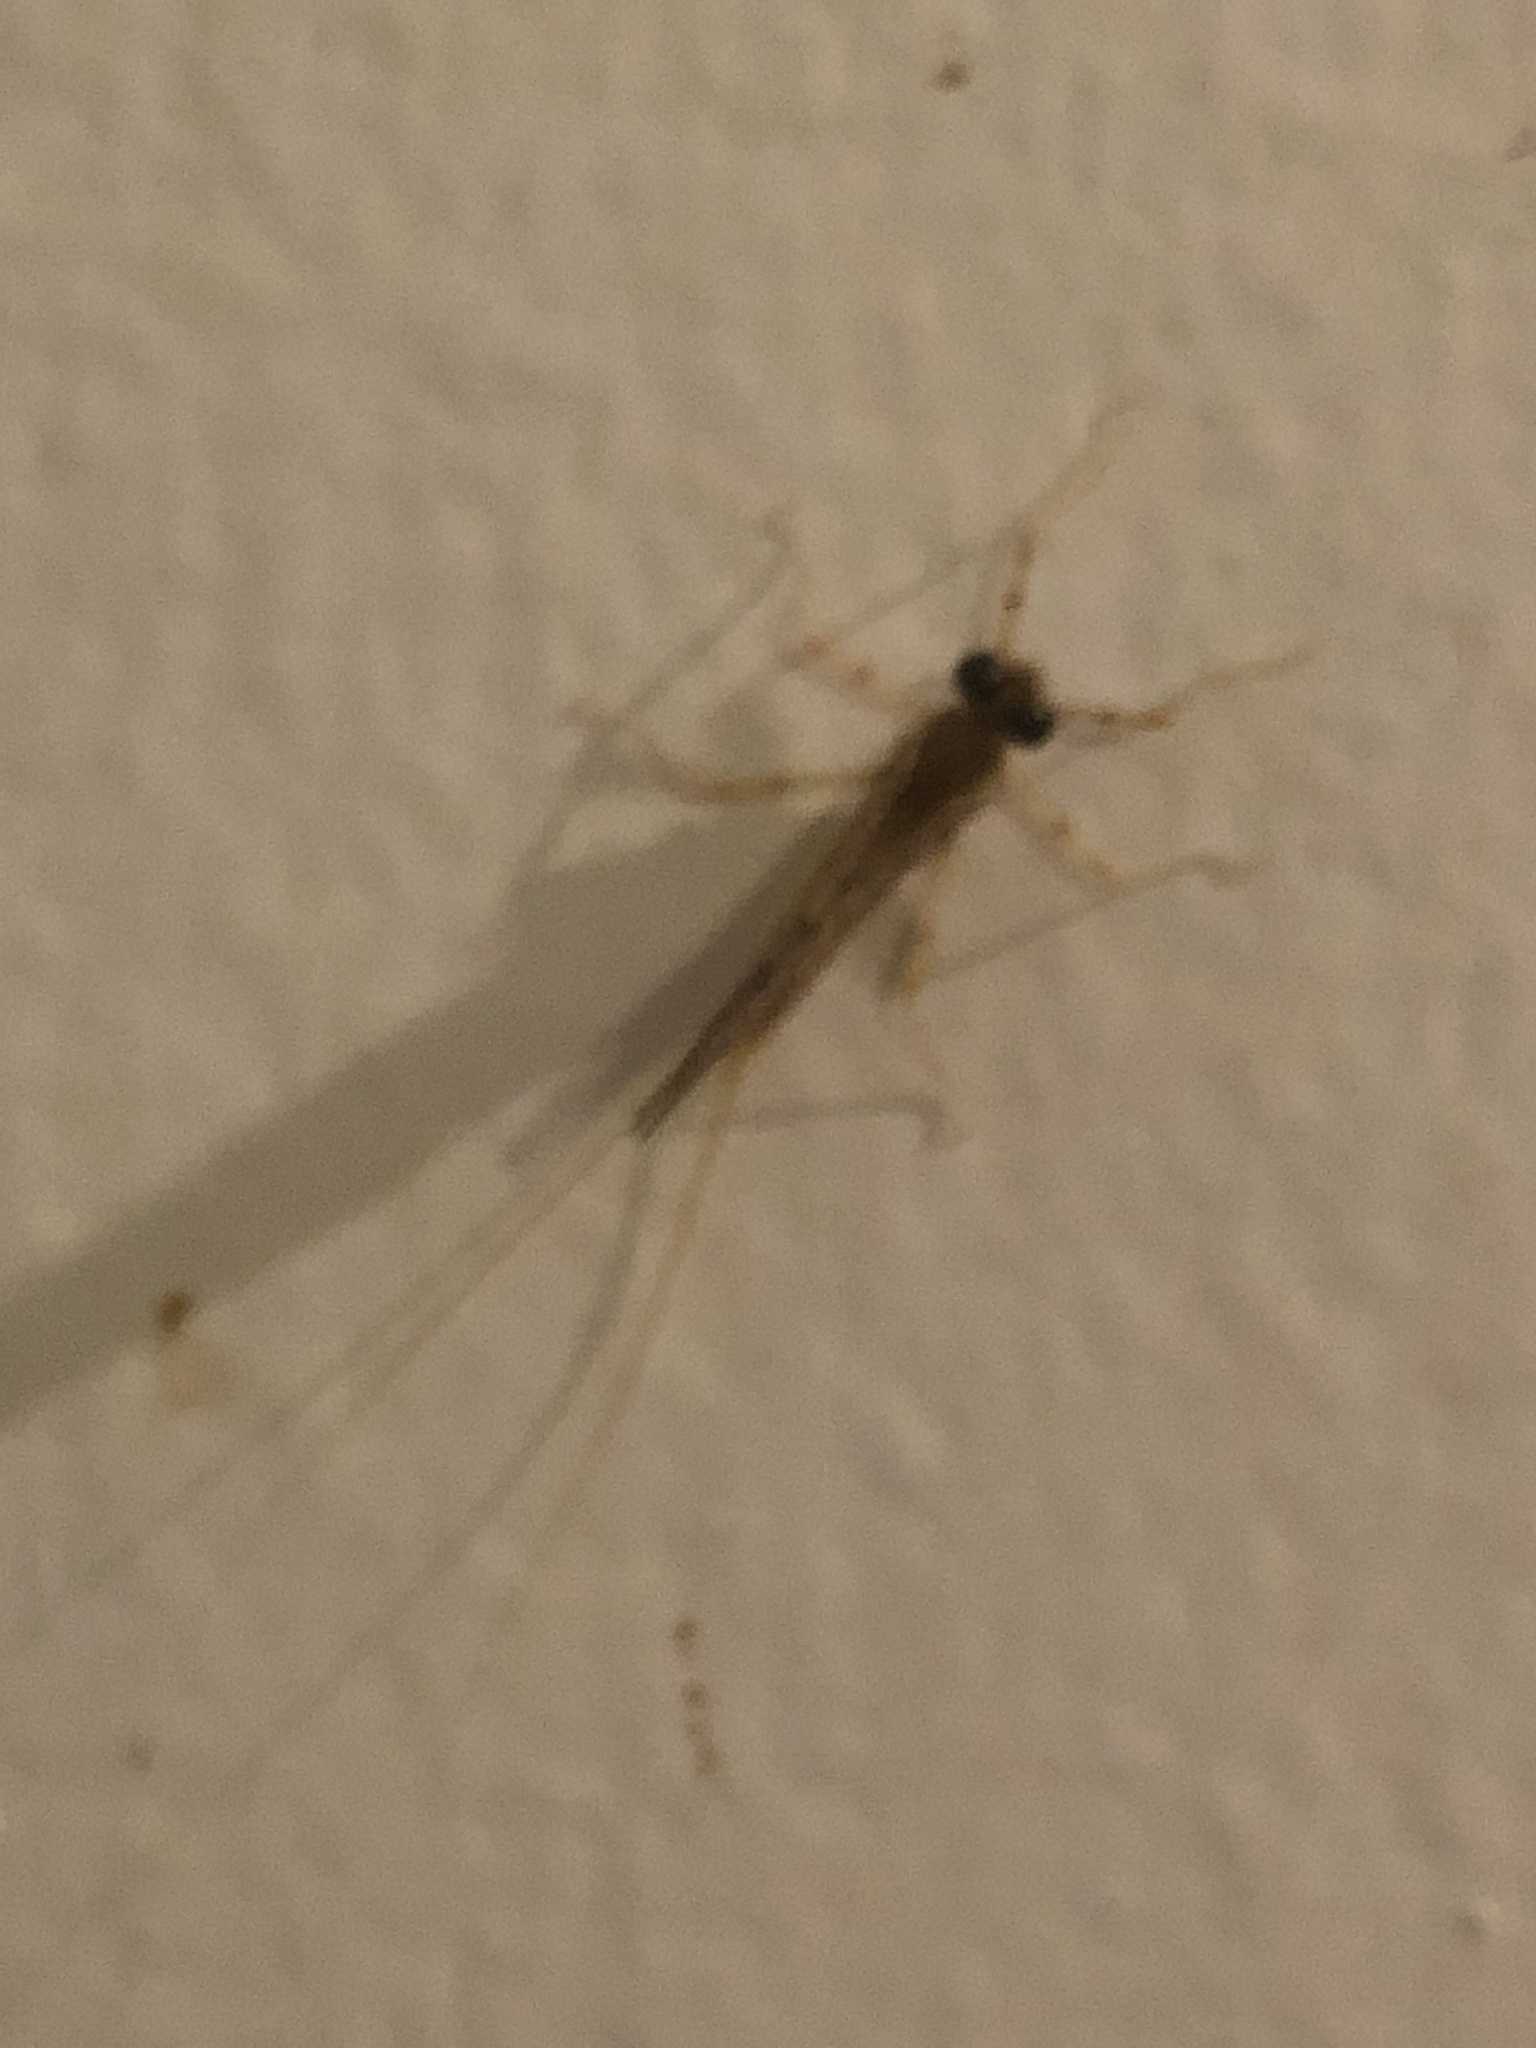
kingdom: Animalia
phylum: Arthropoda
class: Insecta
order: Ephemeroptera
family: Heptageniidae
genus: Stenonema
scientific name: Stenonema femoratum
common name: Dark cahill
